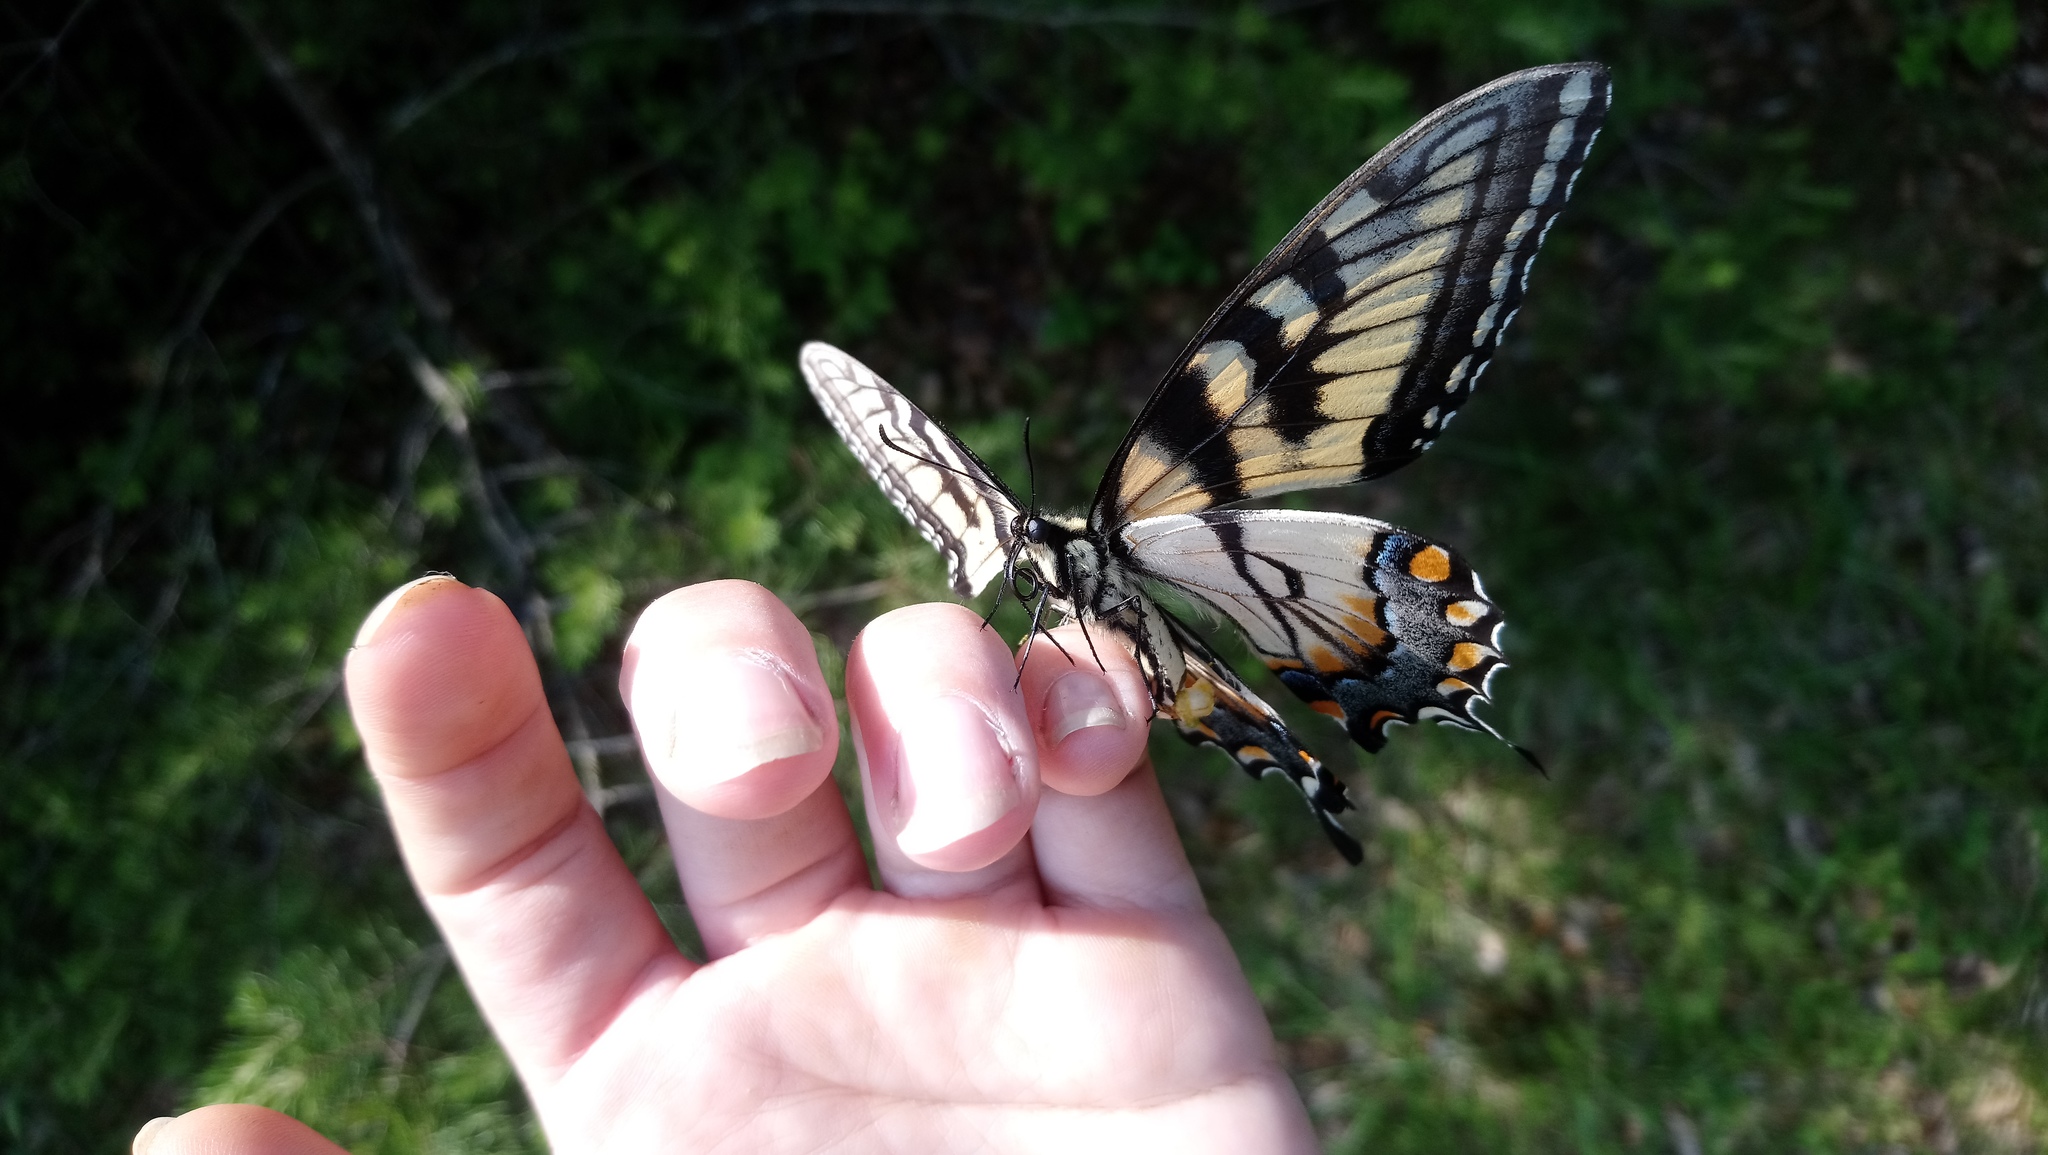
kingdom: Animalia
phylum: Arthropoda
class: Insecta
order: Lepidoptera
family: Papilionidae
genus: Papilio
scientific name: Papilio glaucus
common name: Tiger swallowtail
